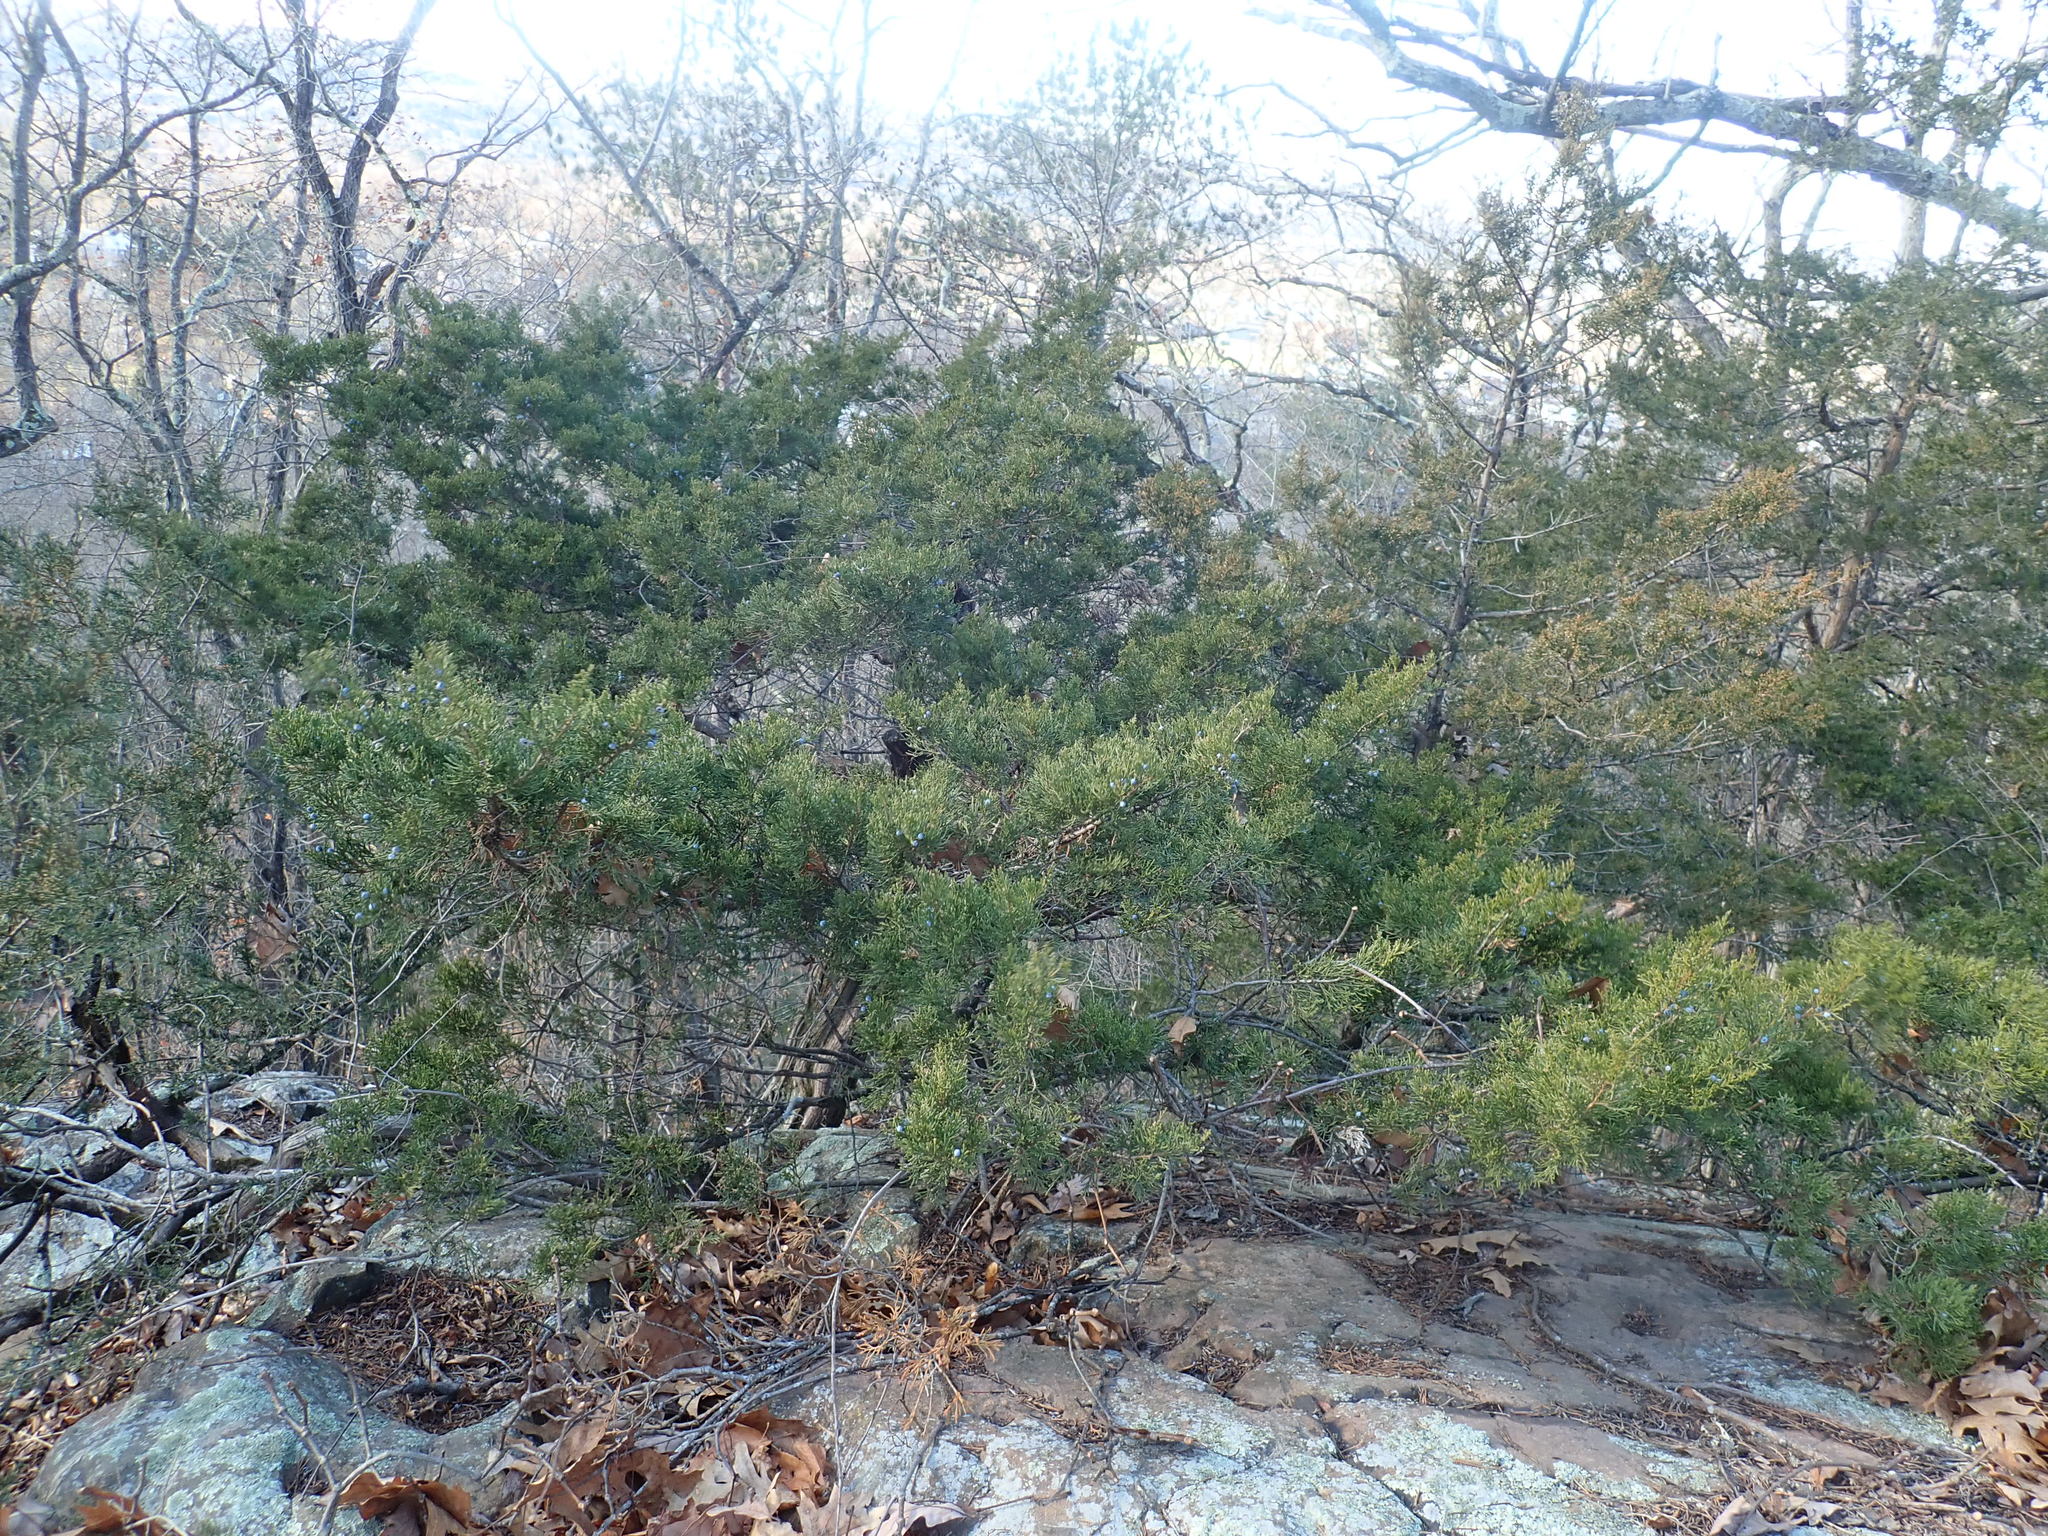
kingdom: Plantae
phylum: Tracheophyta
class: Pinopsida
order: Pinales
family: Cupressaceae
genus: Juniperus
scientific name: Juniperus virginiana
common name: Red juniper
